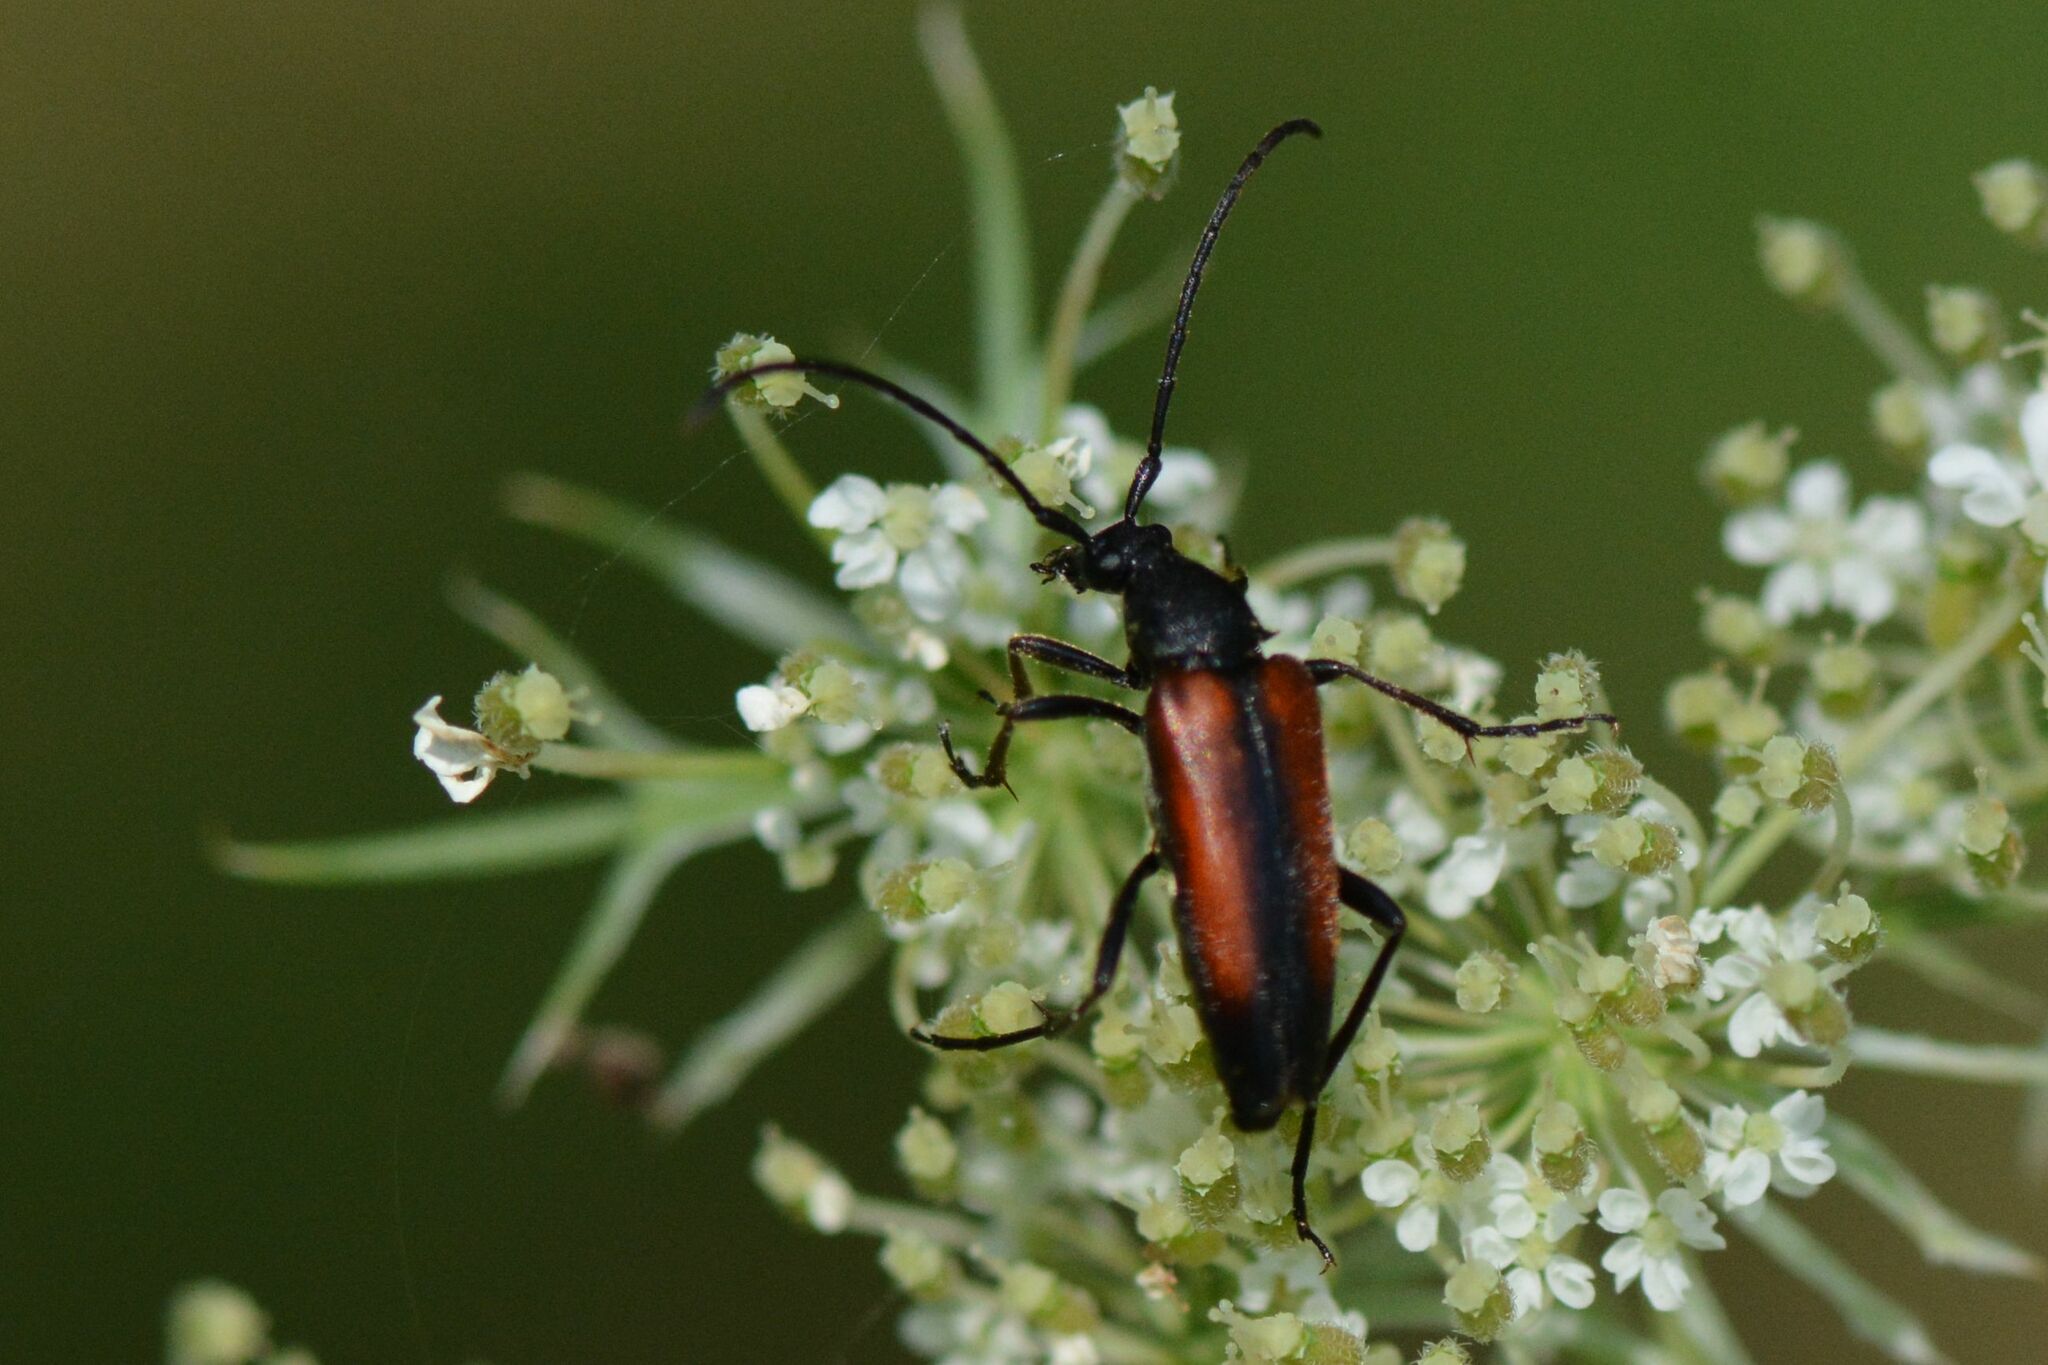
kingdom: Animalia
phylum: Arthropoda
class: Insecta
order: Coleoptera
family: Cerambycidae
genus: Stenurella
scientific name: Stenurella melanura
